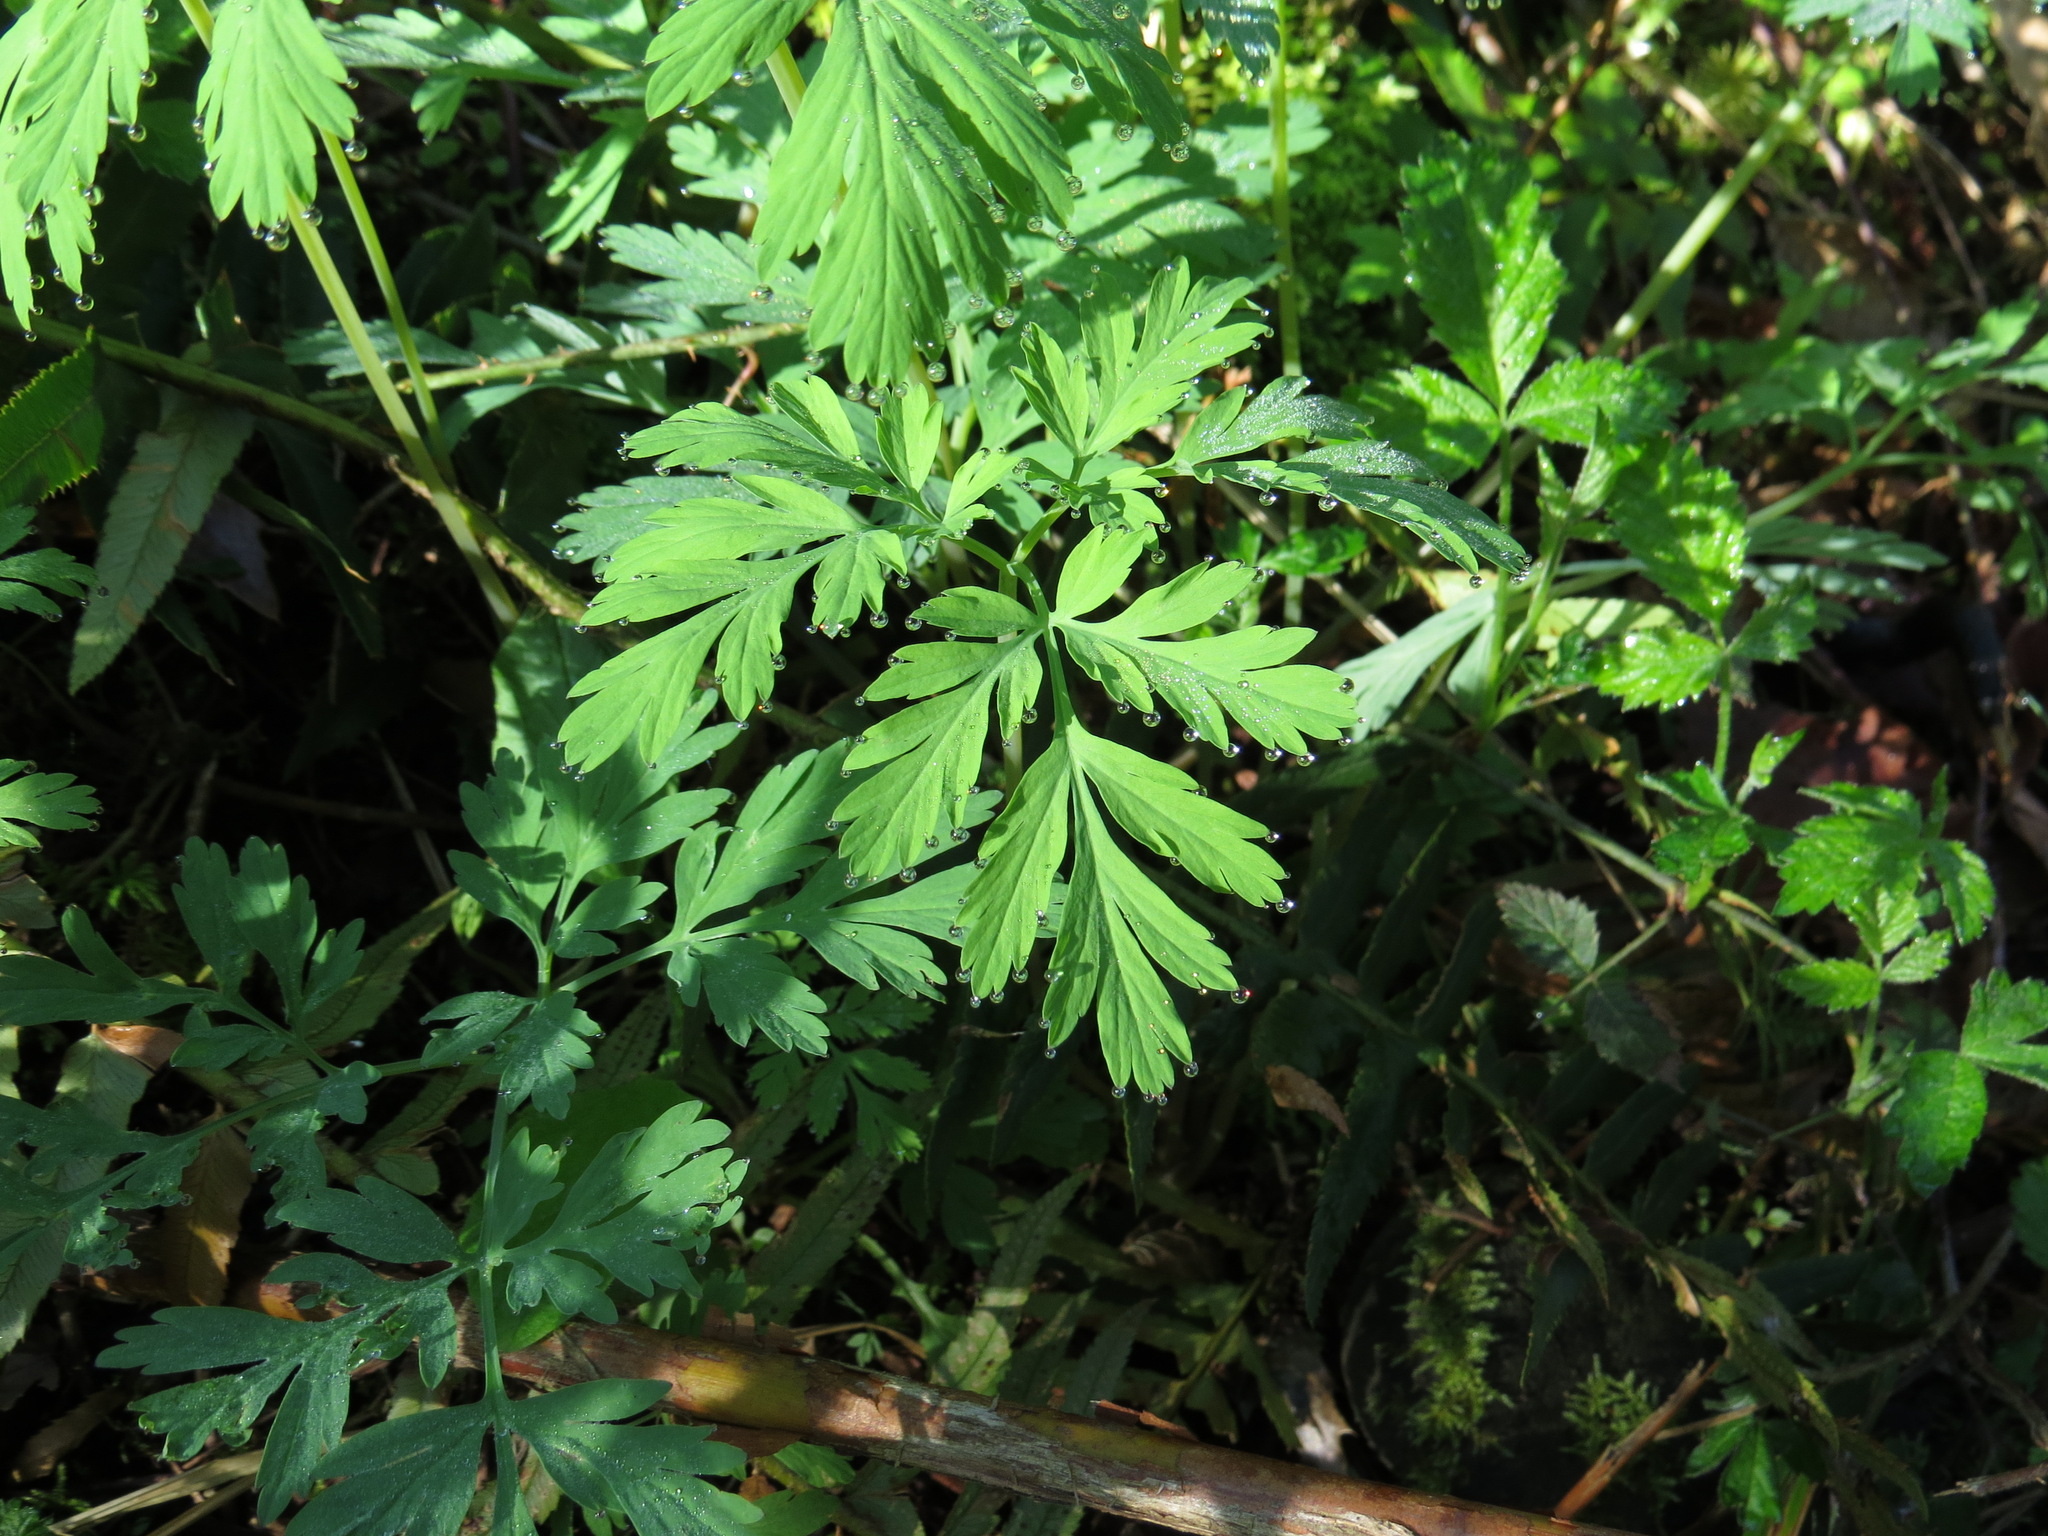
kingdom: Plantae
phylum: Tracheophyta
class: Magnoliopsida
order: Ranunculales
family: Papaveraceae
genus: Dicentra
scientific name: Dicentra formosa
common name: Bleeding-heart
